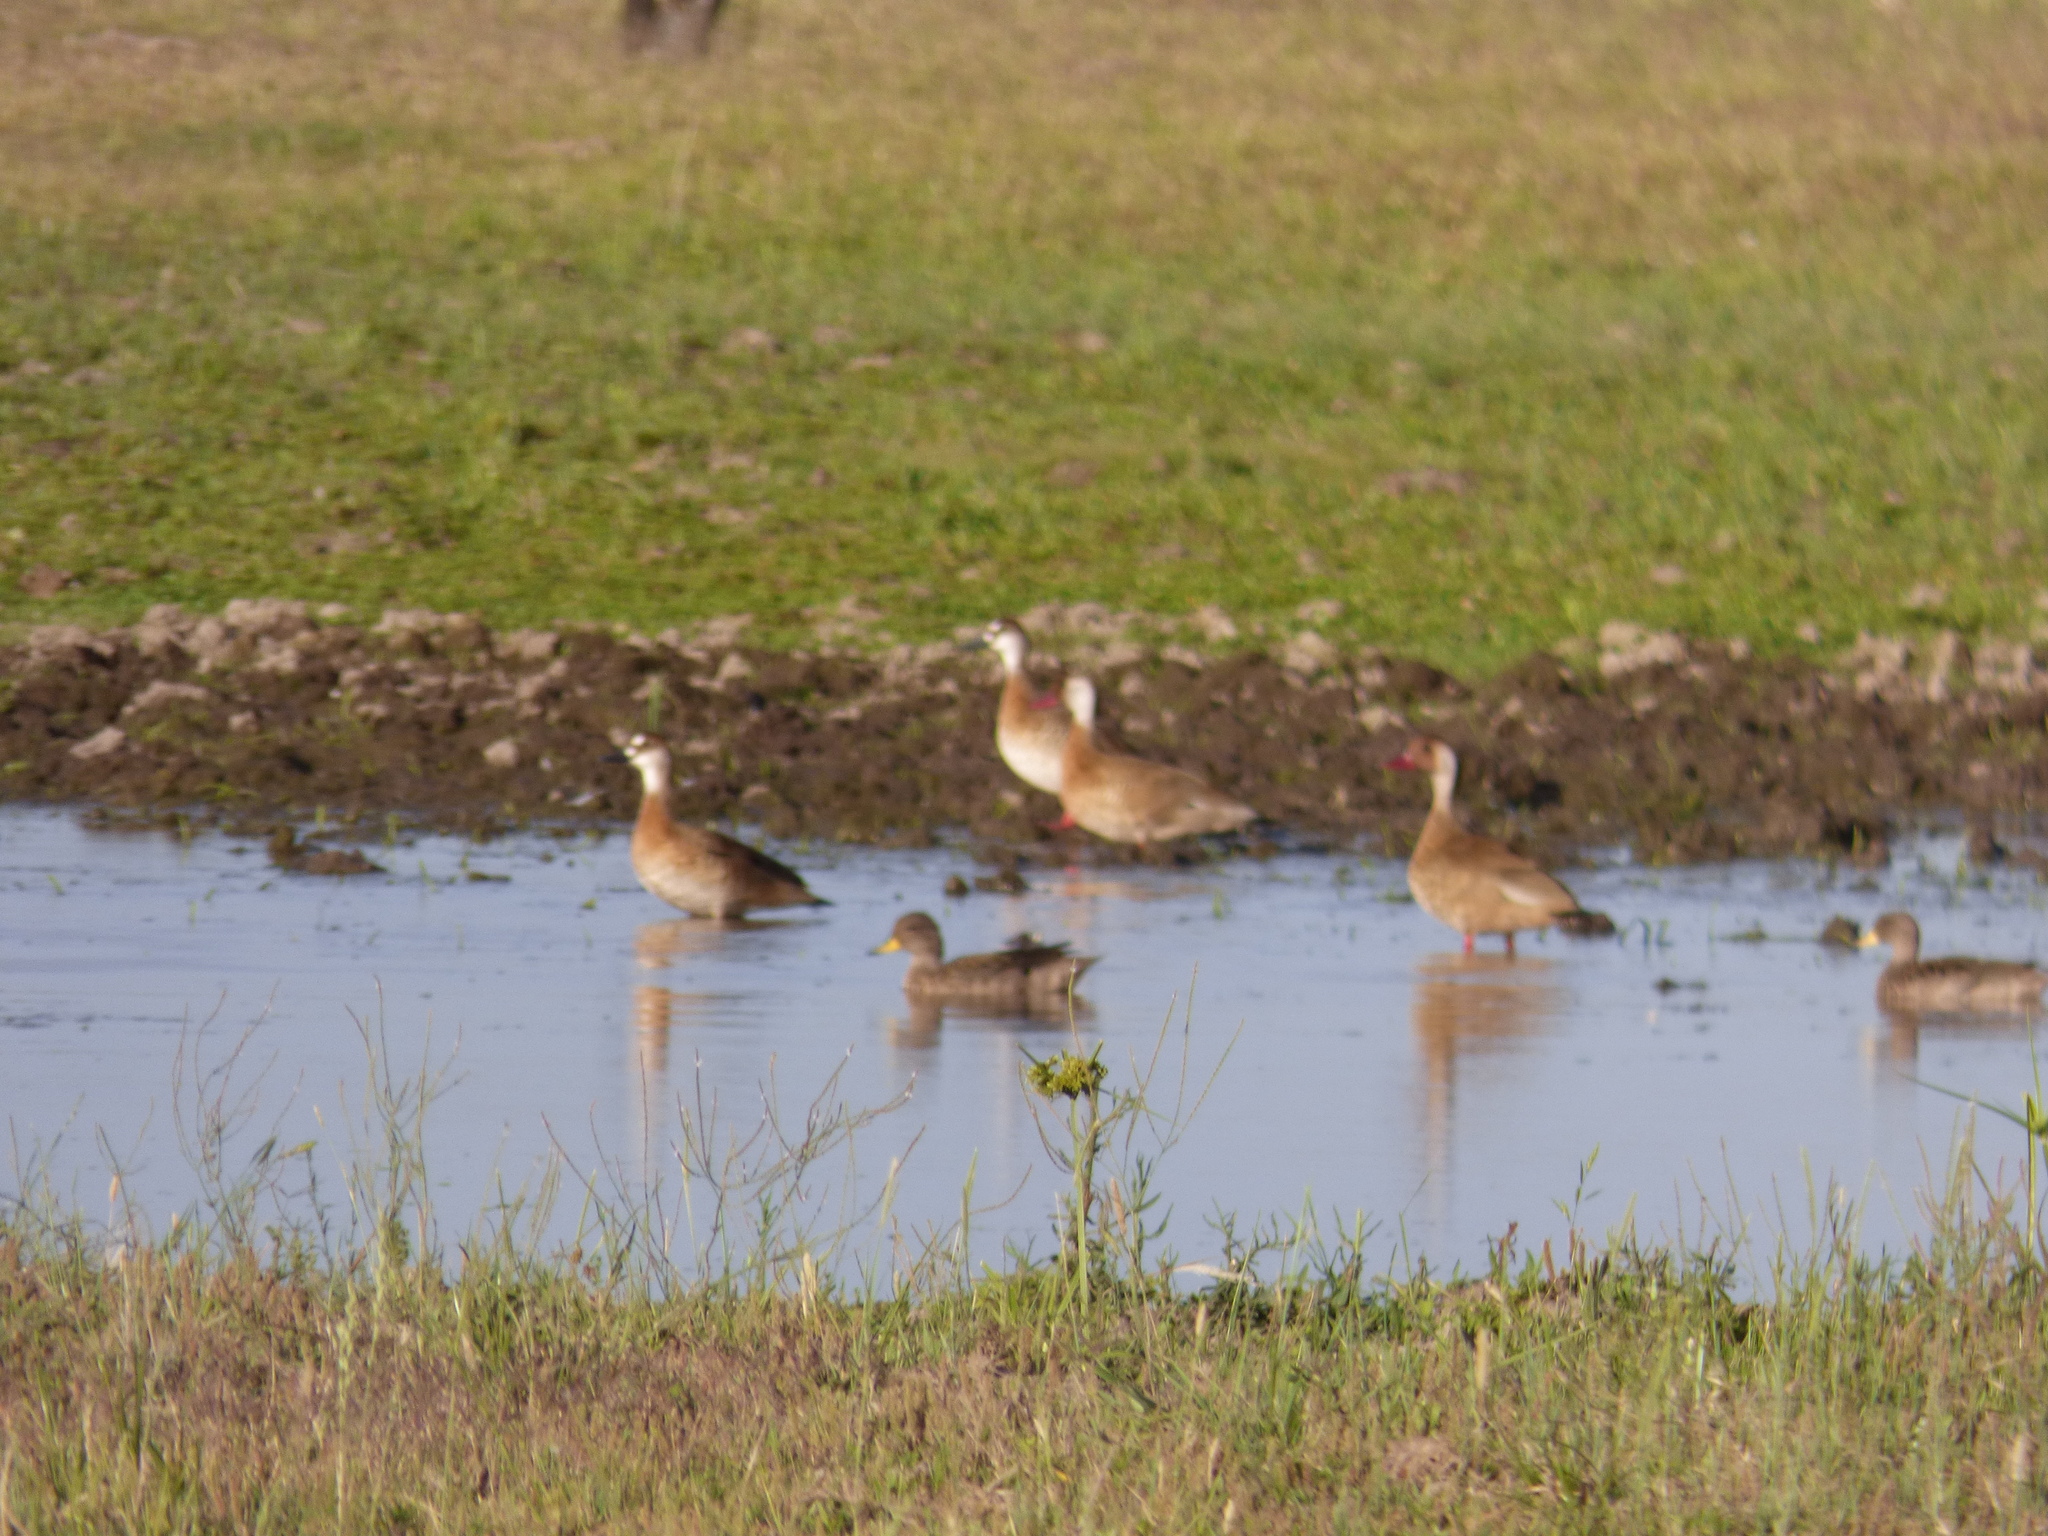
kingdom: Animalia
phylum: Chordata
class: Aves
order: Anseriformes
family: Anatidae
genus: Amazonetta
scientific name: Amazonetta brasiliensis
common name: Brazilian teal
